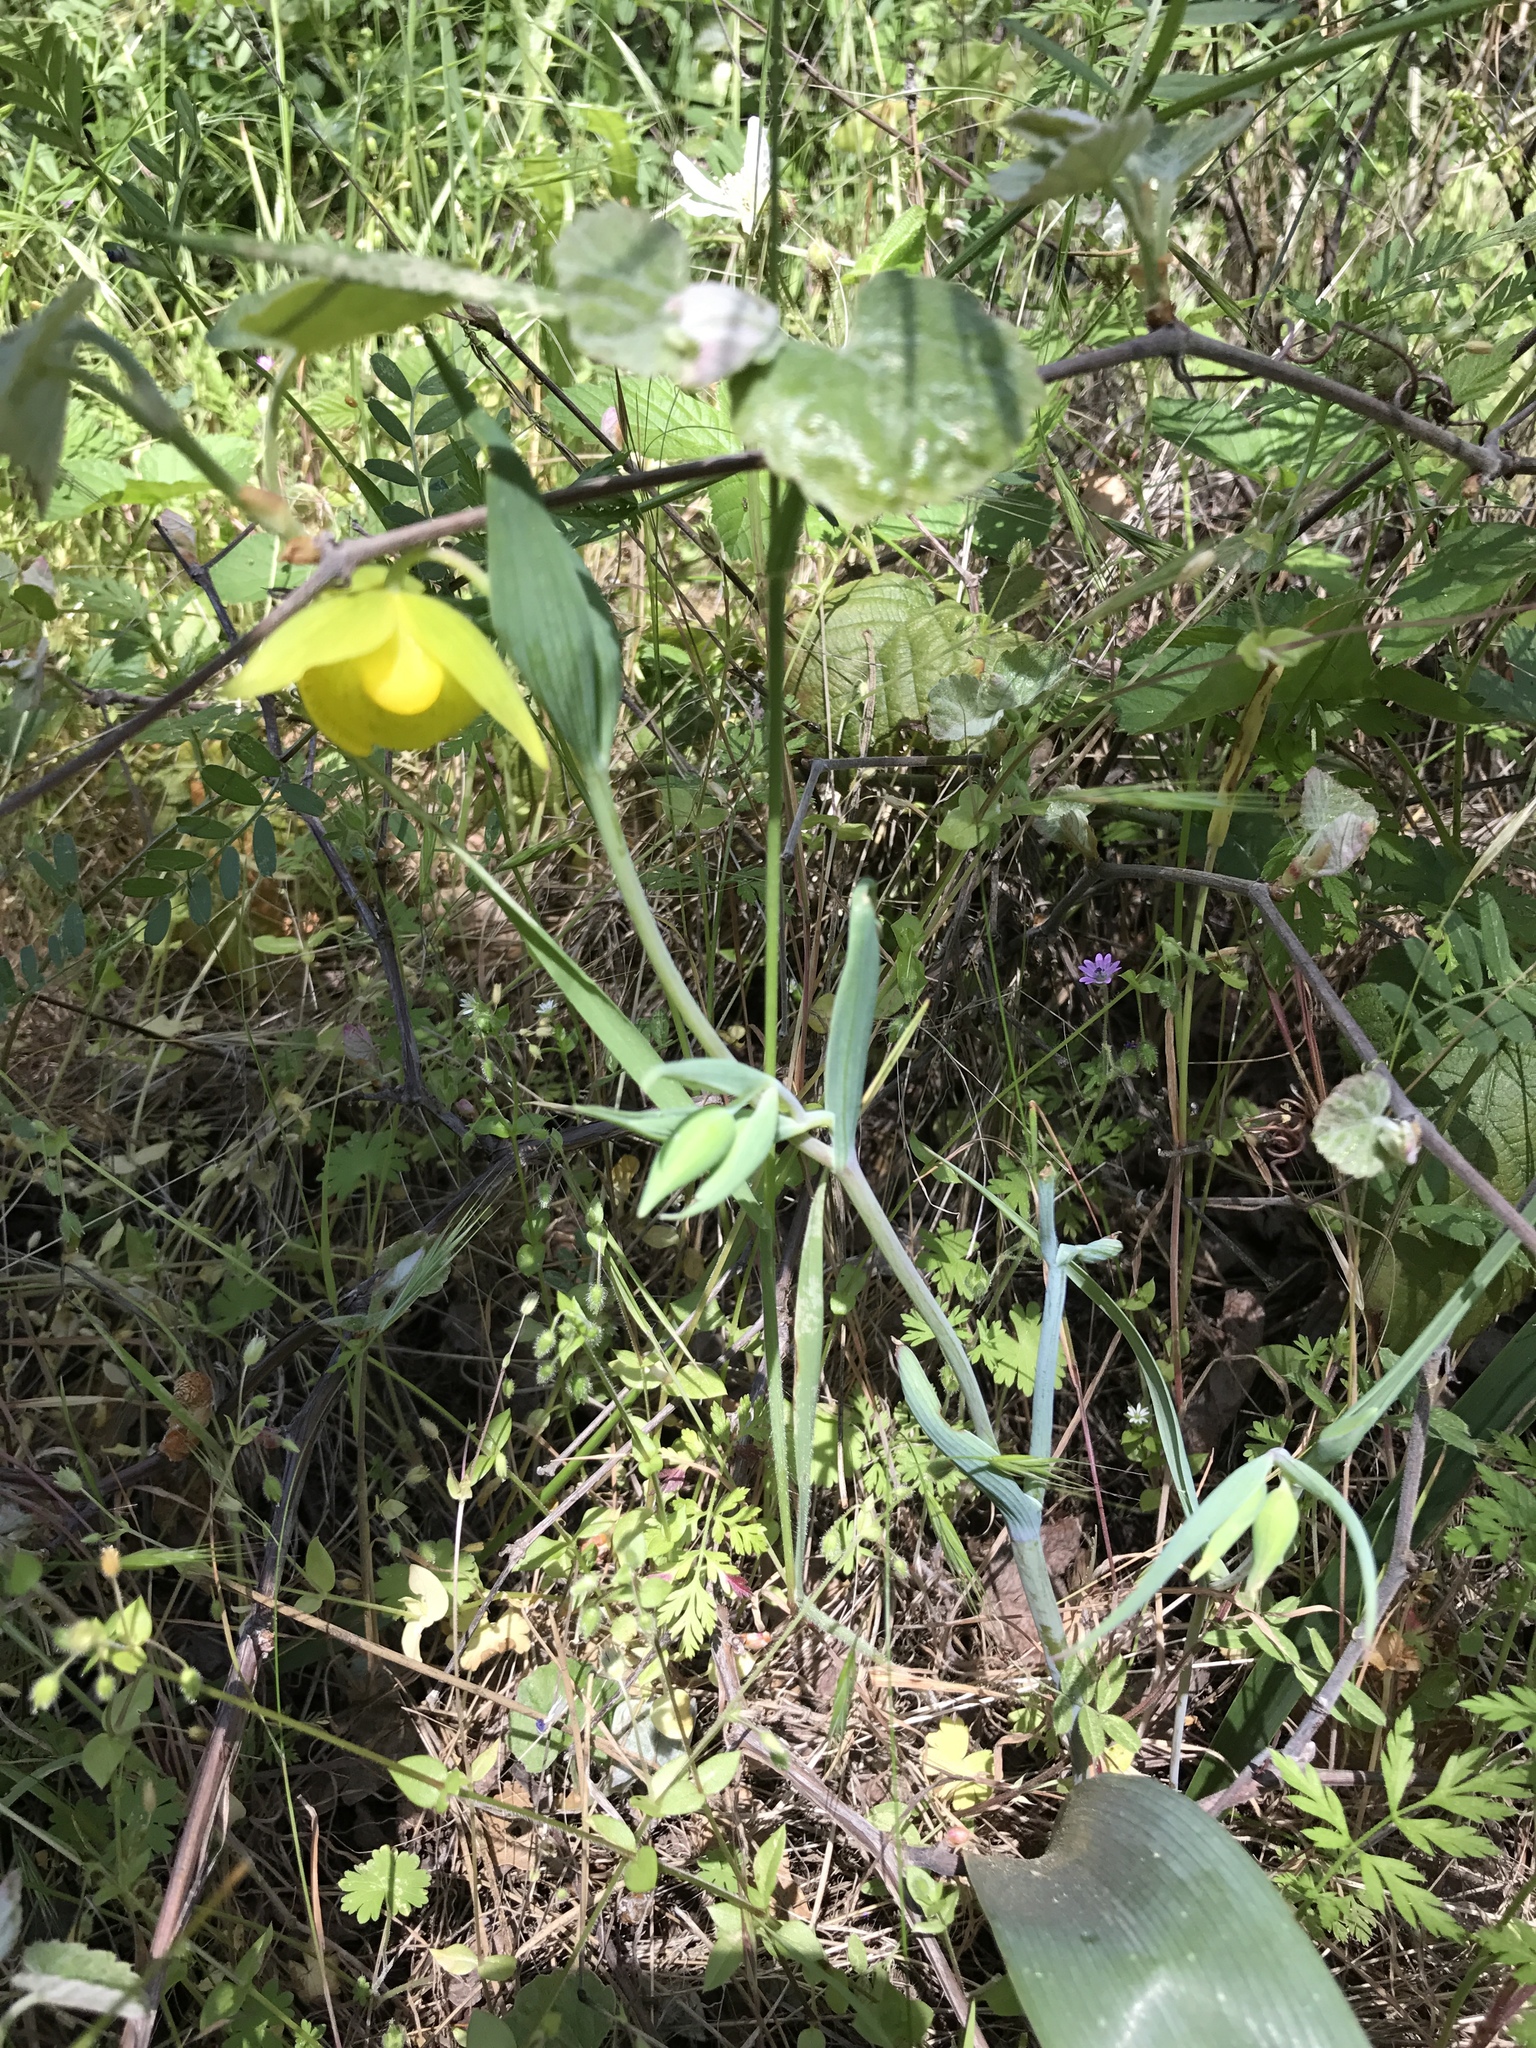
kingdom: Plantae
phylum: Tracheophyta
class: Liliopsida
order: Liliales
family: Liliaceae
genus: Calochortus
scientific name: Calochortus pulchellus
